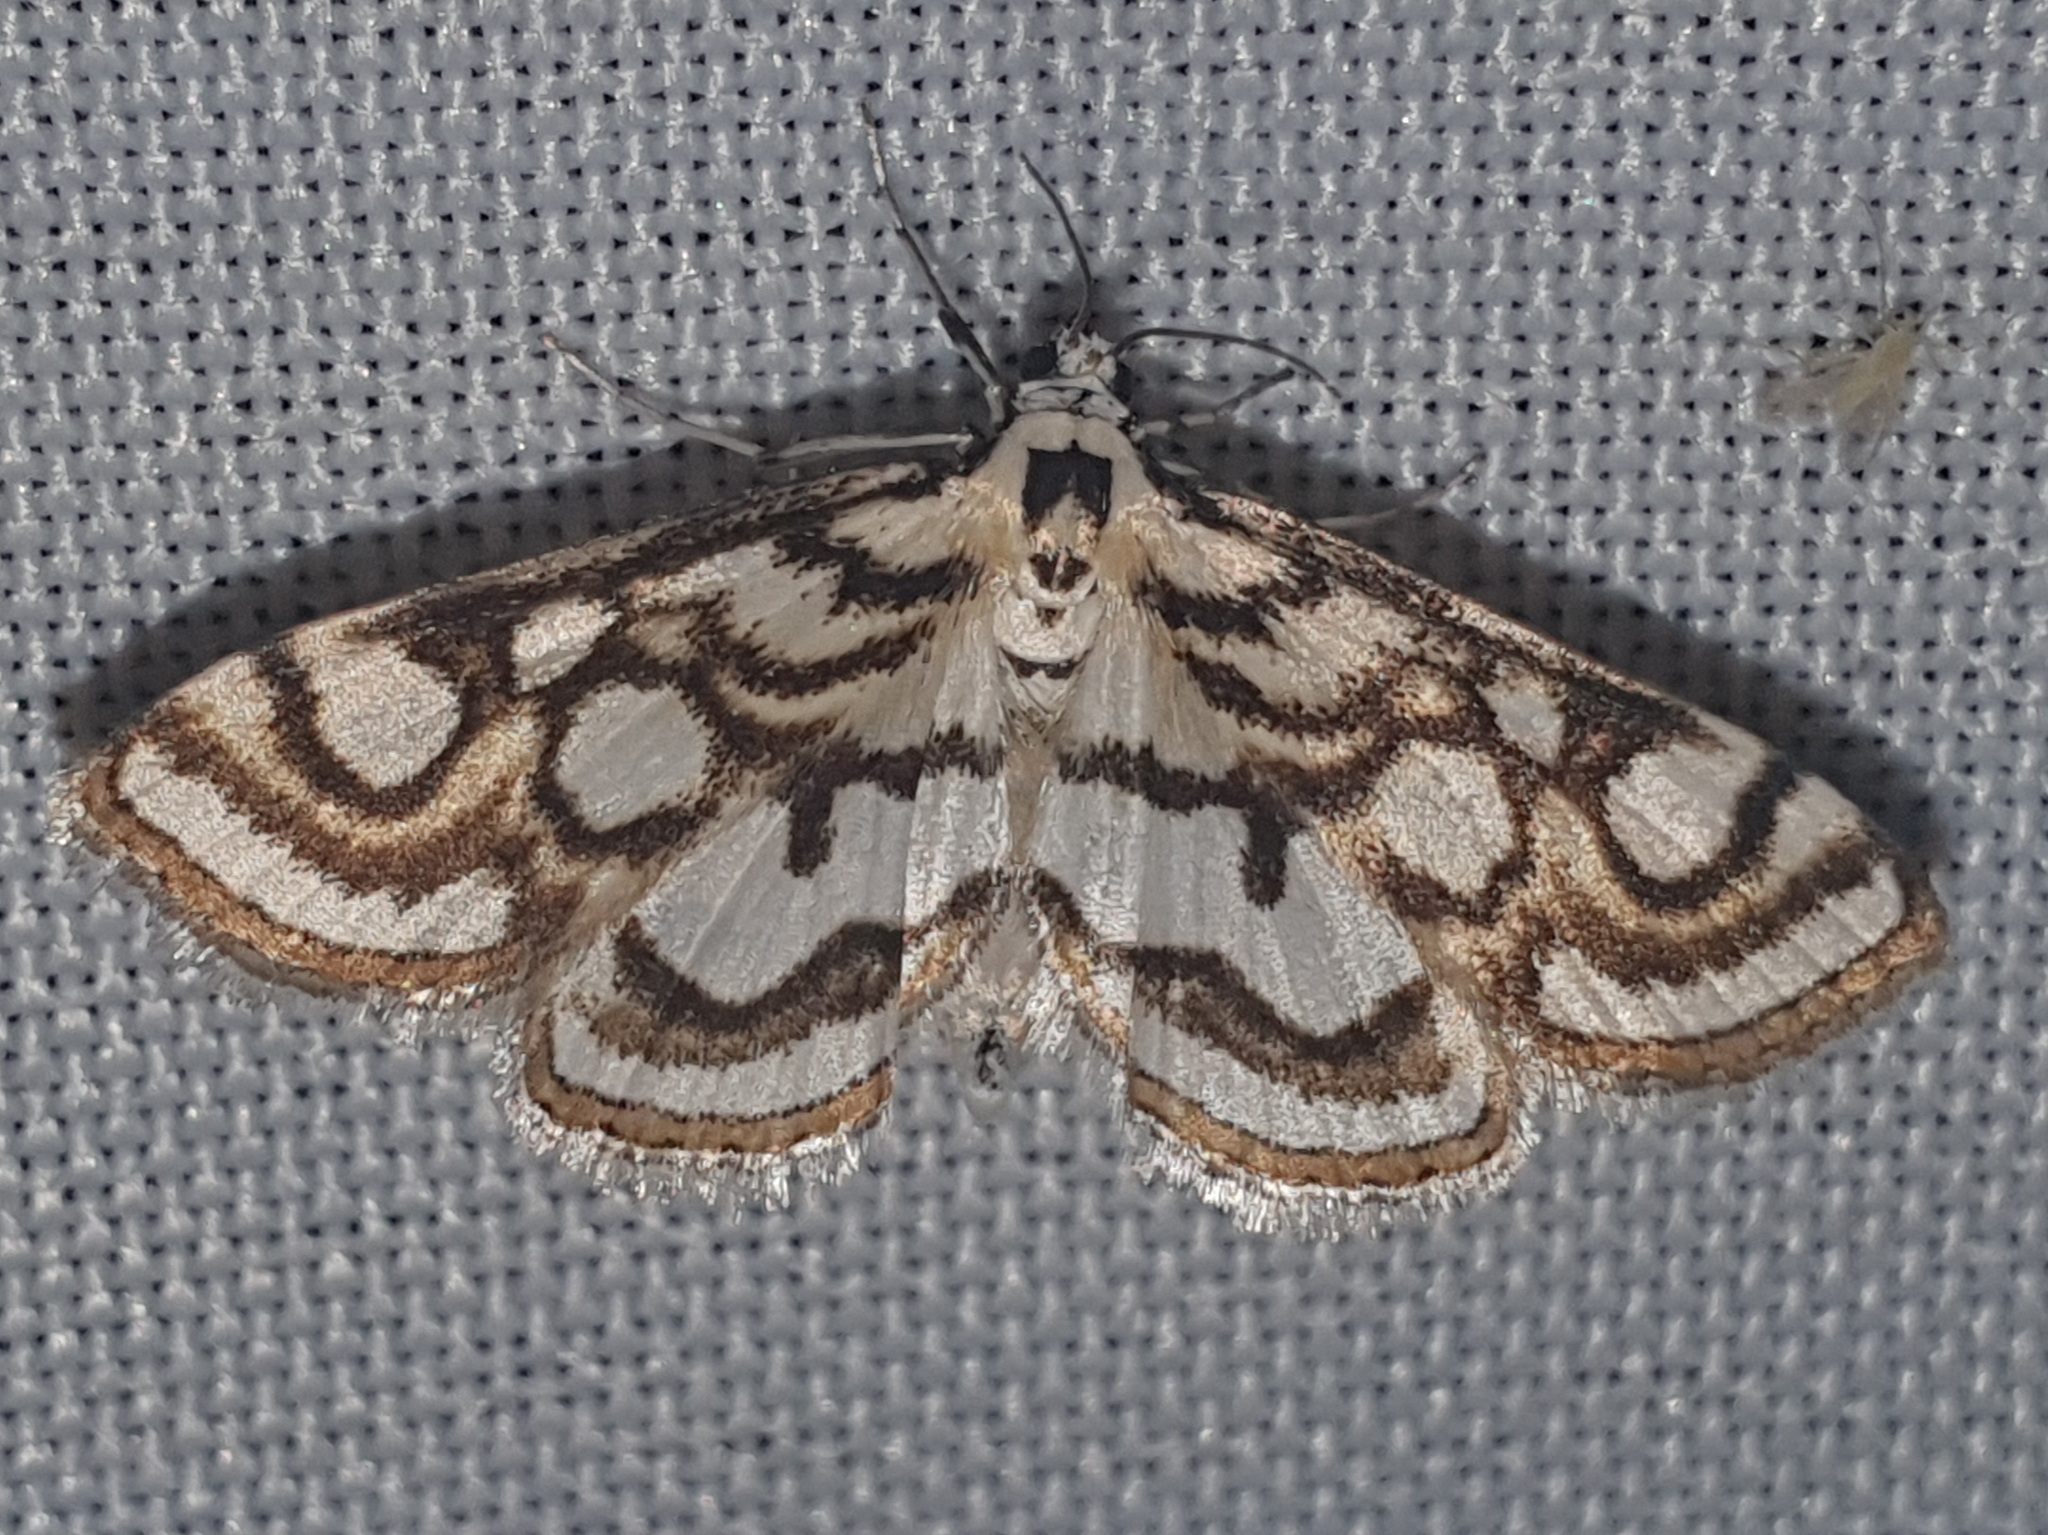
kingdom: Animalia
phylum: Arthropoda
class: Insecta
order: Lepidoptera
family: Crambidae
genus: Nymphula
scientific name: Nymphula nitidulata
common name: Beautiful china mark
